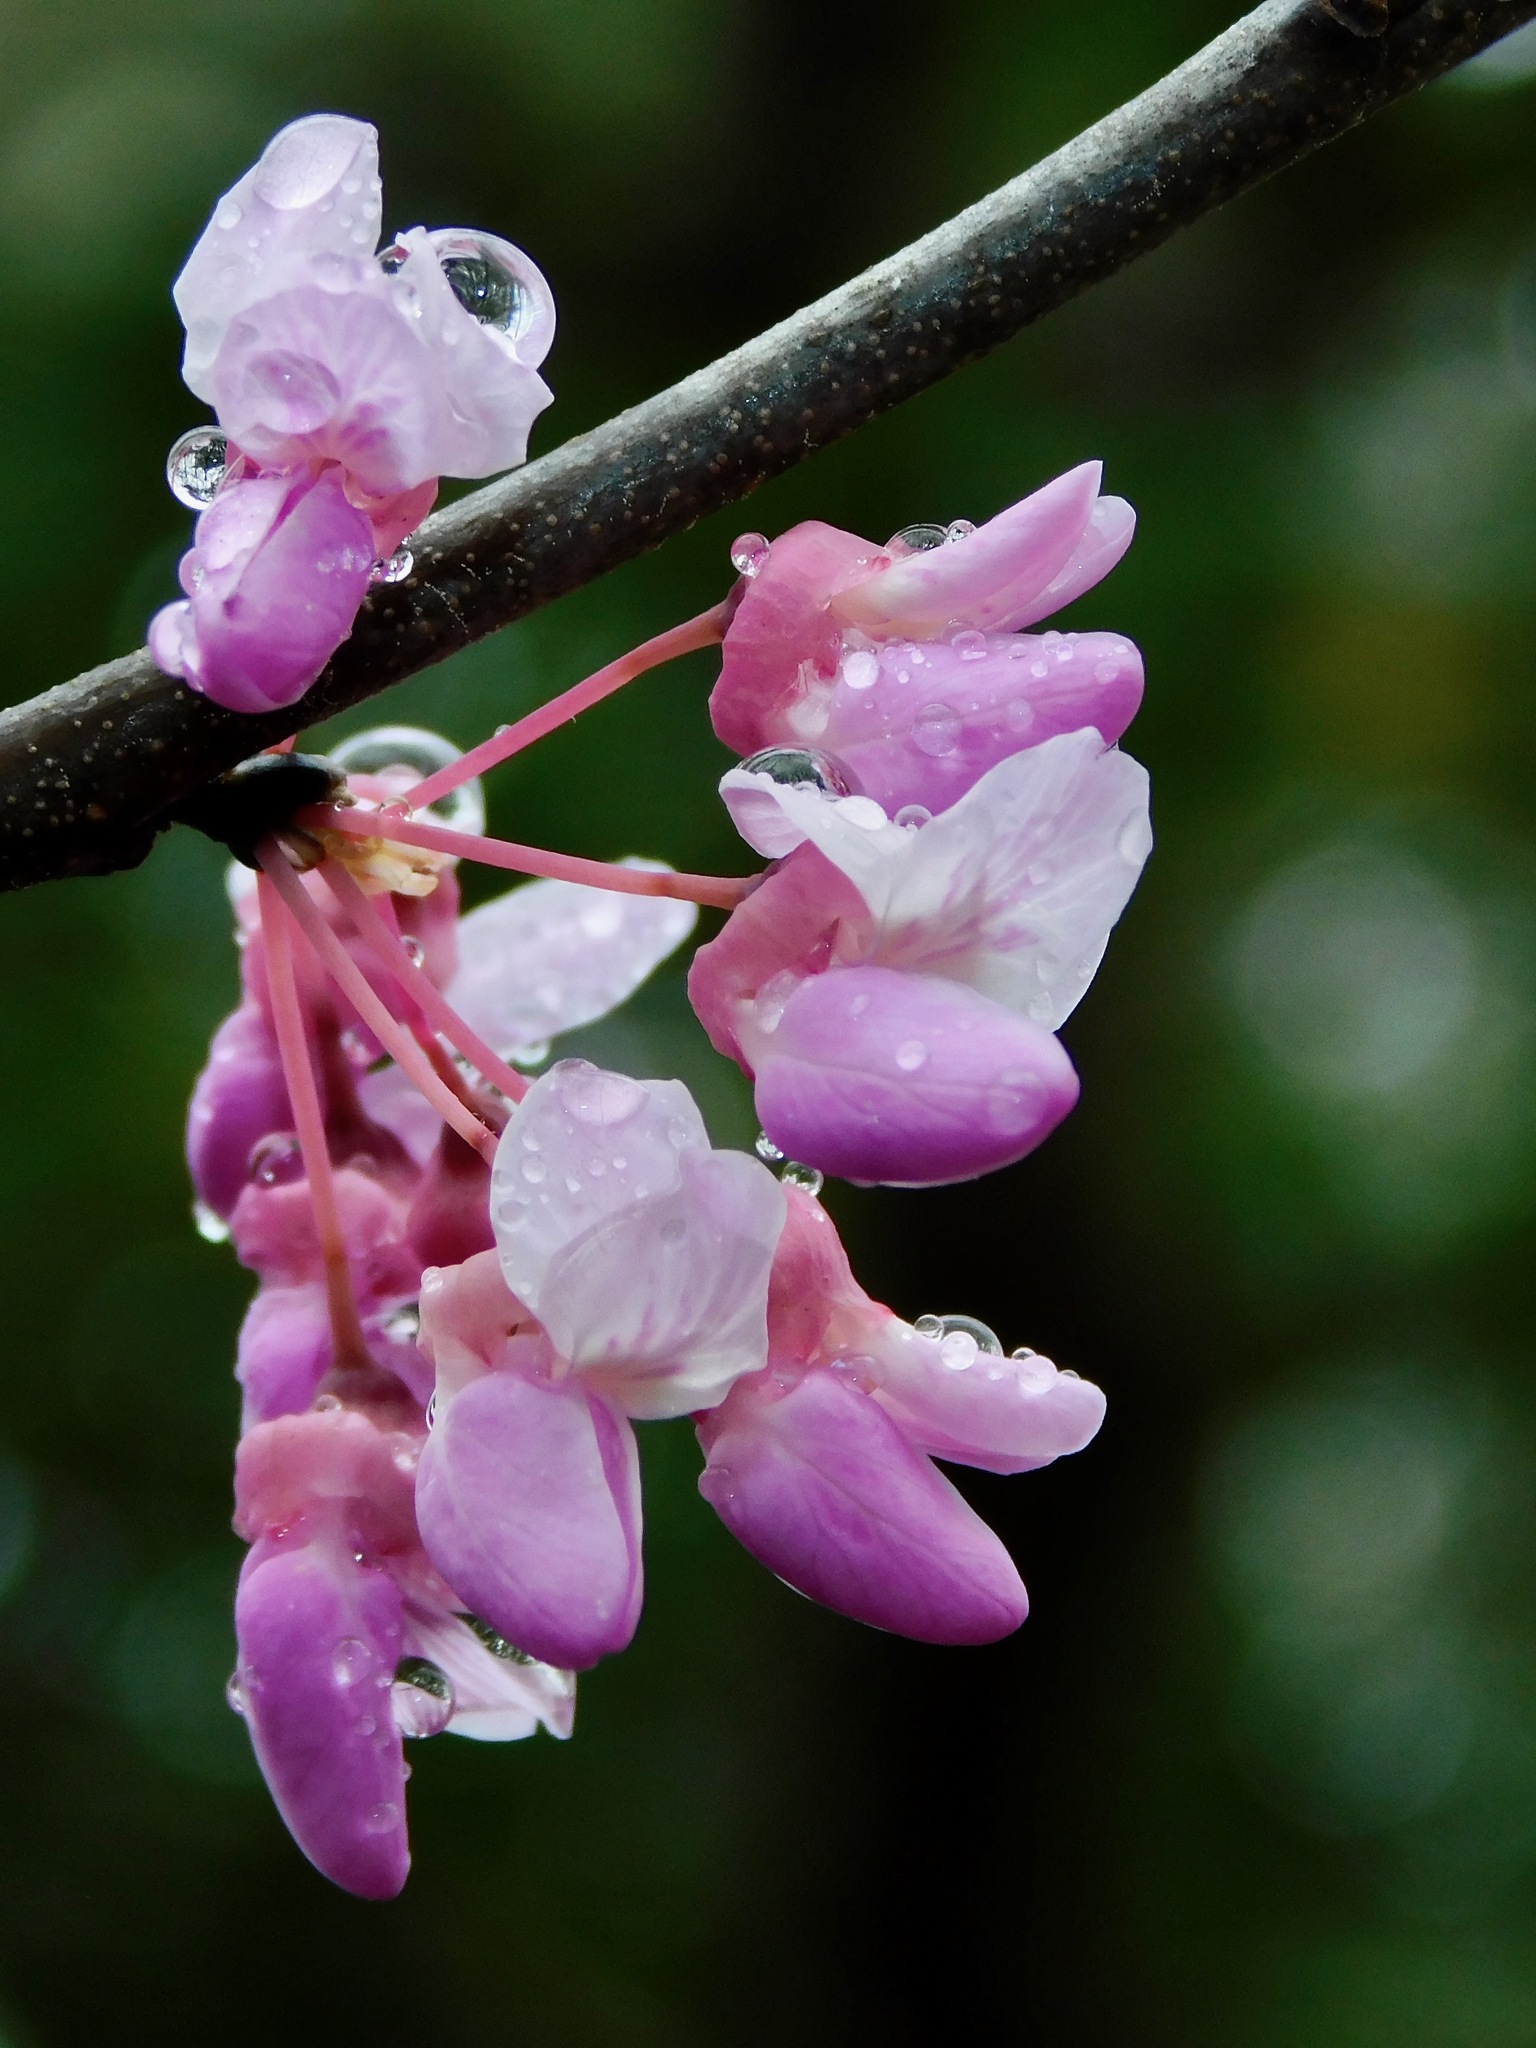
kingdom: Plantae
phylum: Tracheophyta
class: Magnoliopsida
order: Fabales
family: Fabaceae
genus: Cercis
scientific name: Cercis canadensis
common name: Eastern redbud
